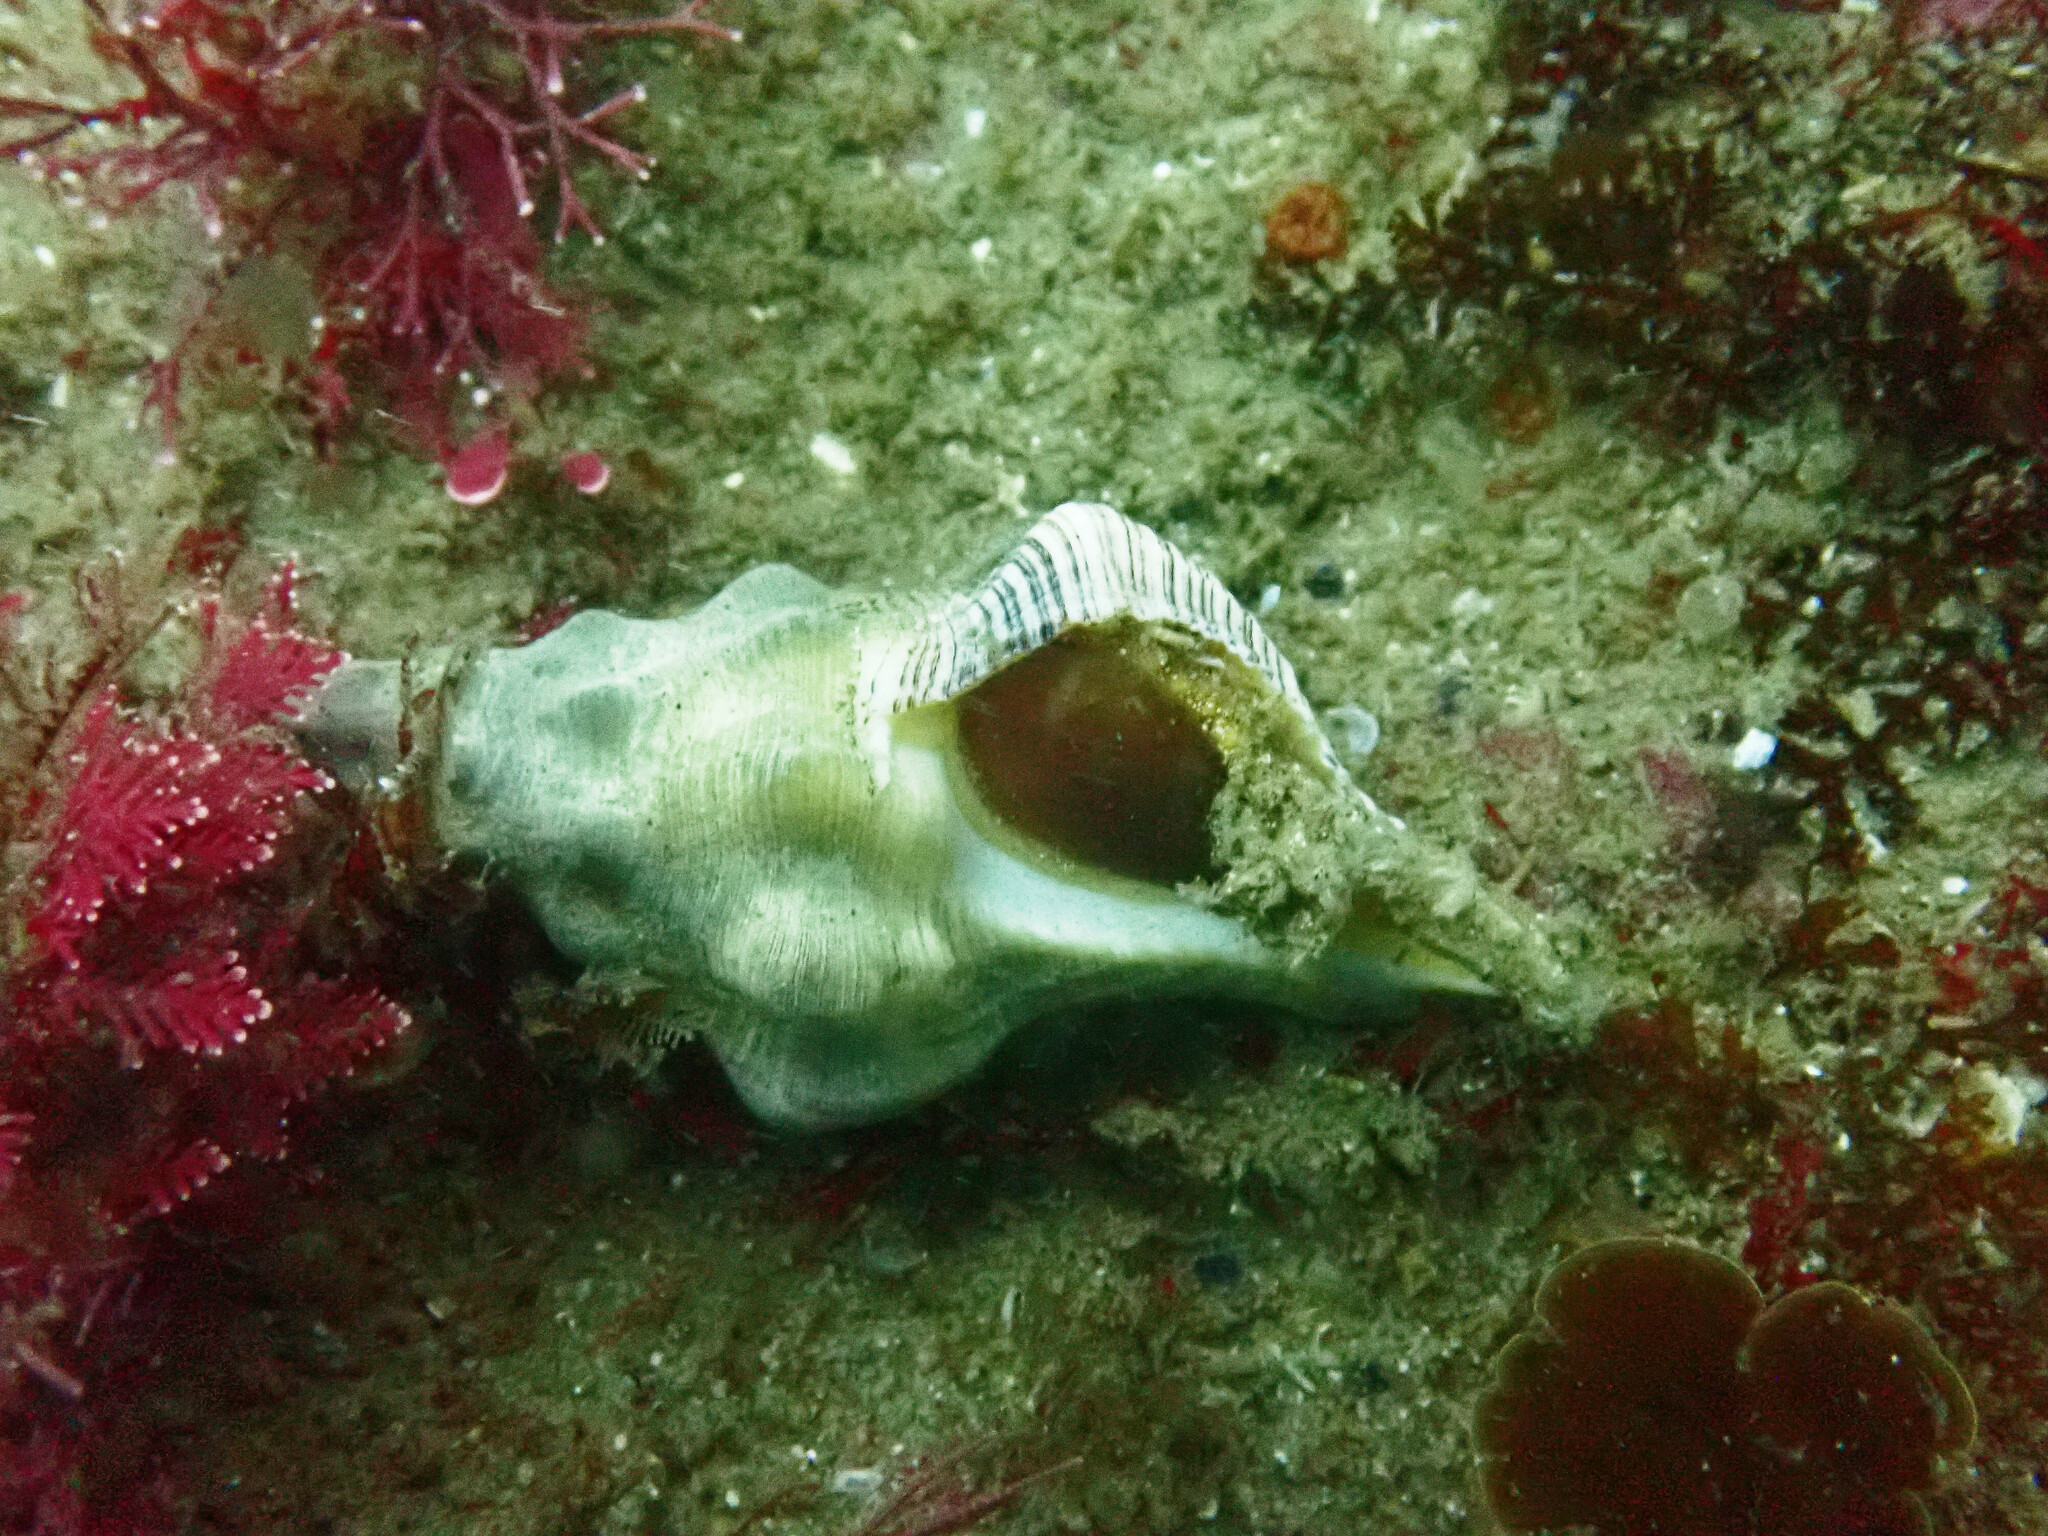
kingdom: Animalia
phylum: Mollusca
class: Gastropoda
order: Neogastropoda
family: Austrosiphonidae
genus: Kelletia
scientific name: Kelletia kelletii
